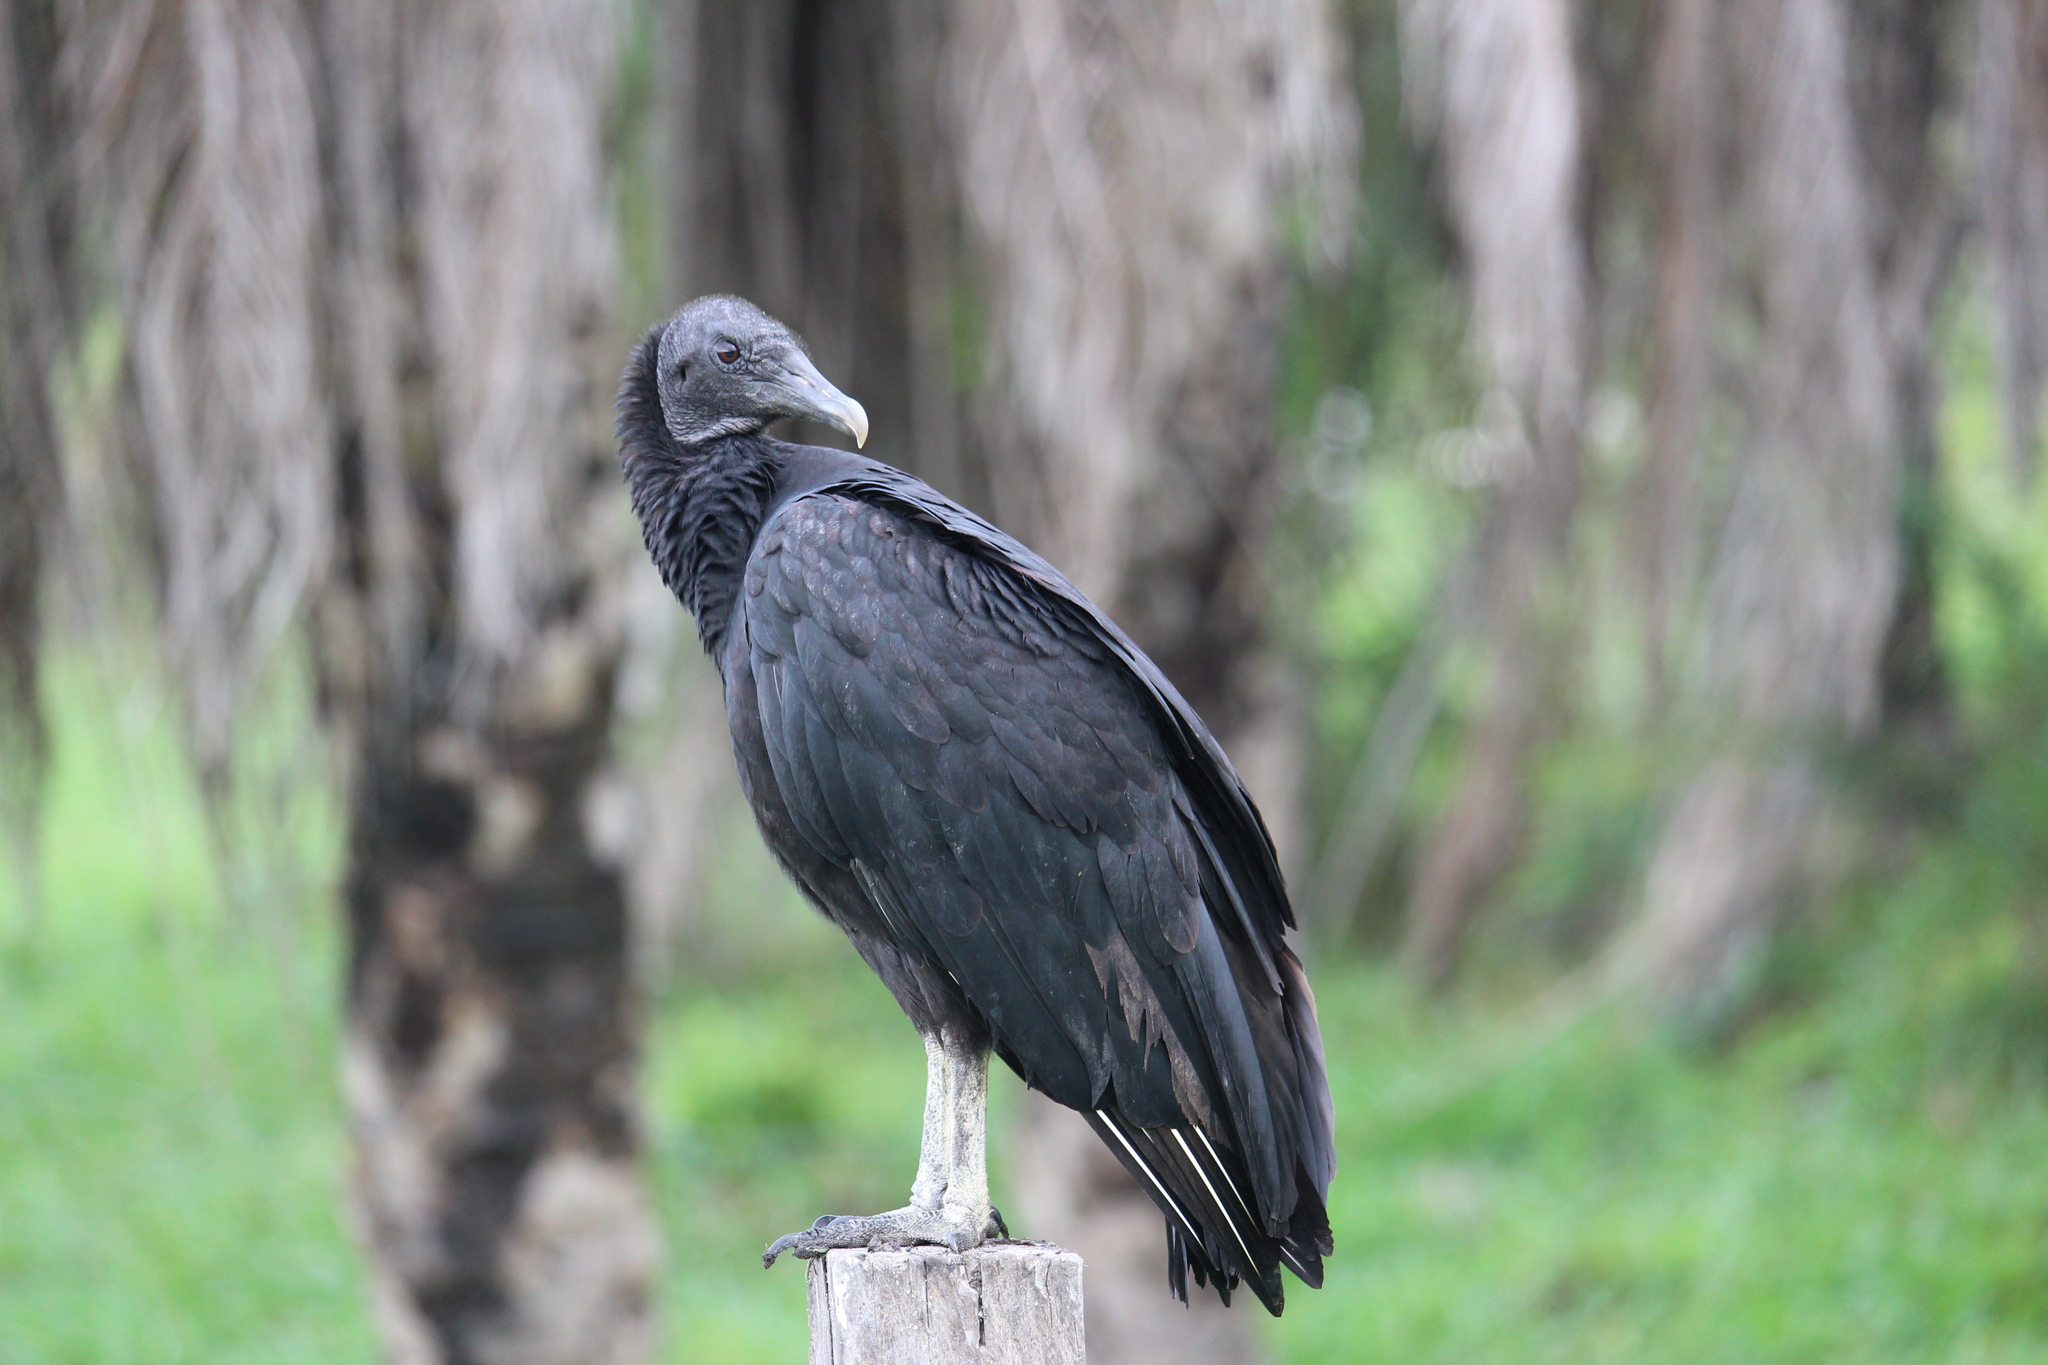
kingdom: Animalia
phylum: Chordata
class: Aves
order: Accipitriformes
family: Cathartidae
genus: Coragyps
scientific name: Coragyps atratus
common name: Black vulture
